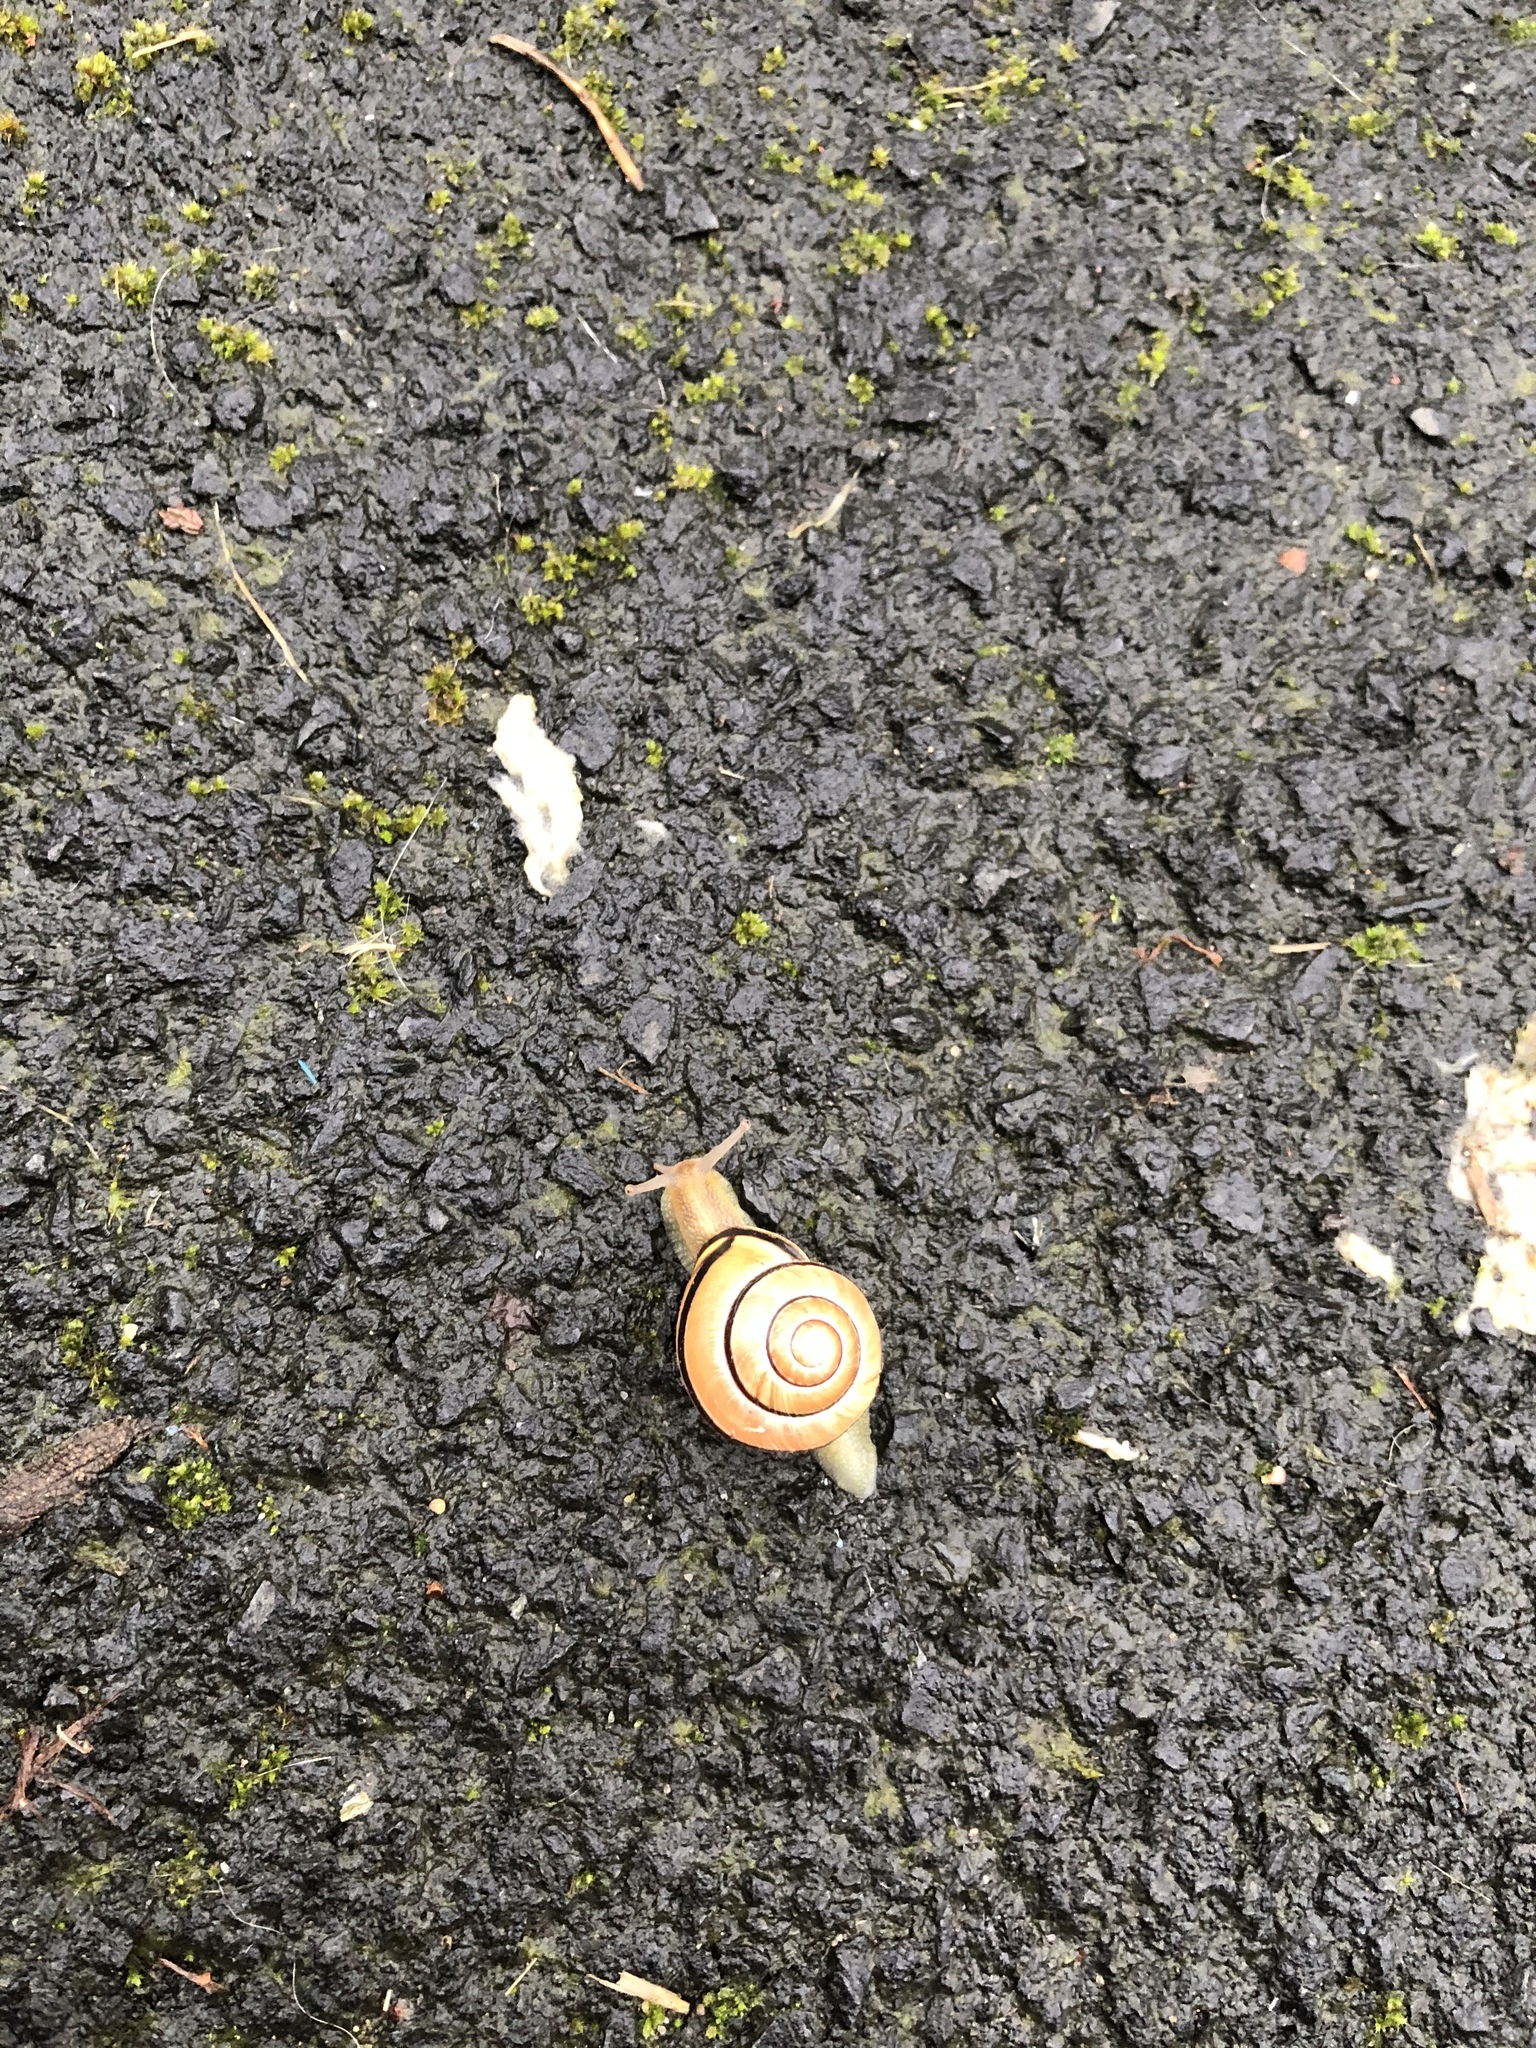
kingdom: Animalia
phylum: Mollusca
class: Gastropoda
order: Stylommatophora
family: Helicidae
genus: Cepaea
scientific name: Cepaea nemoralis
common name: Grovesnail
